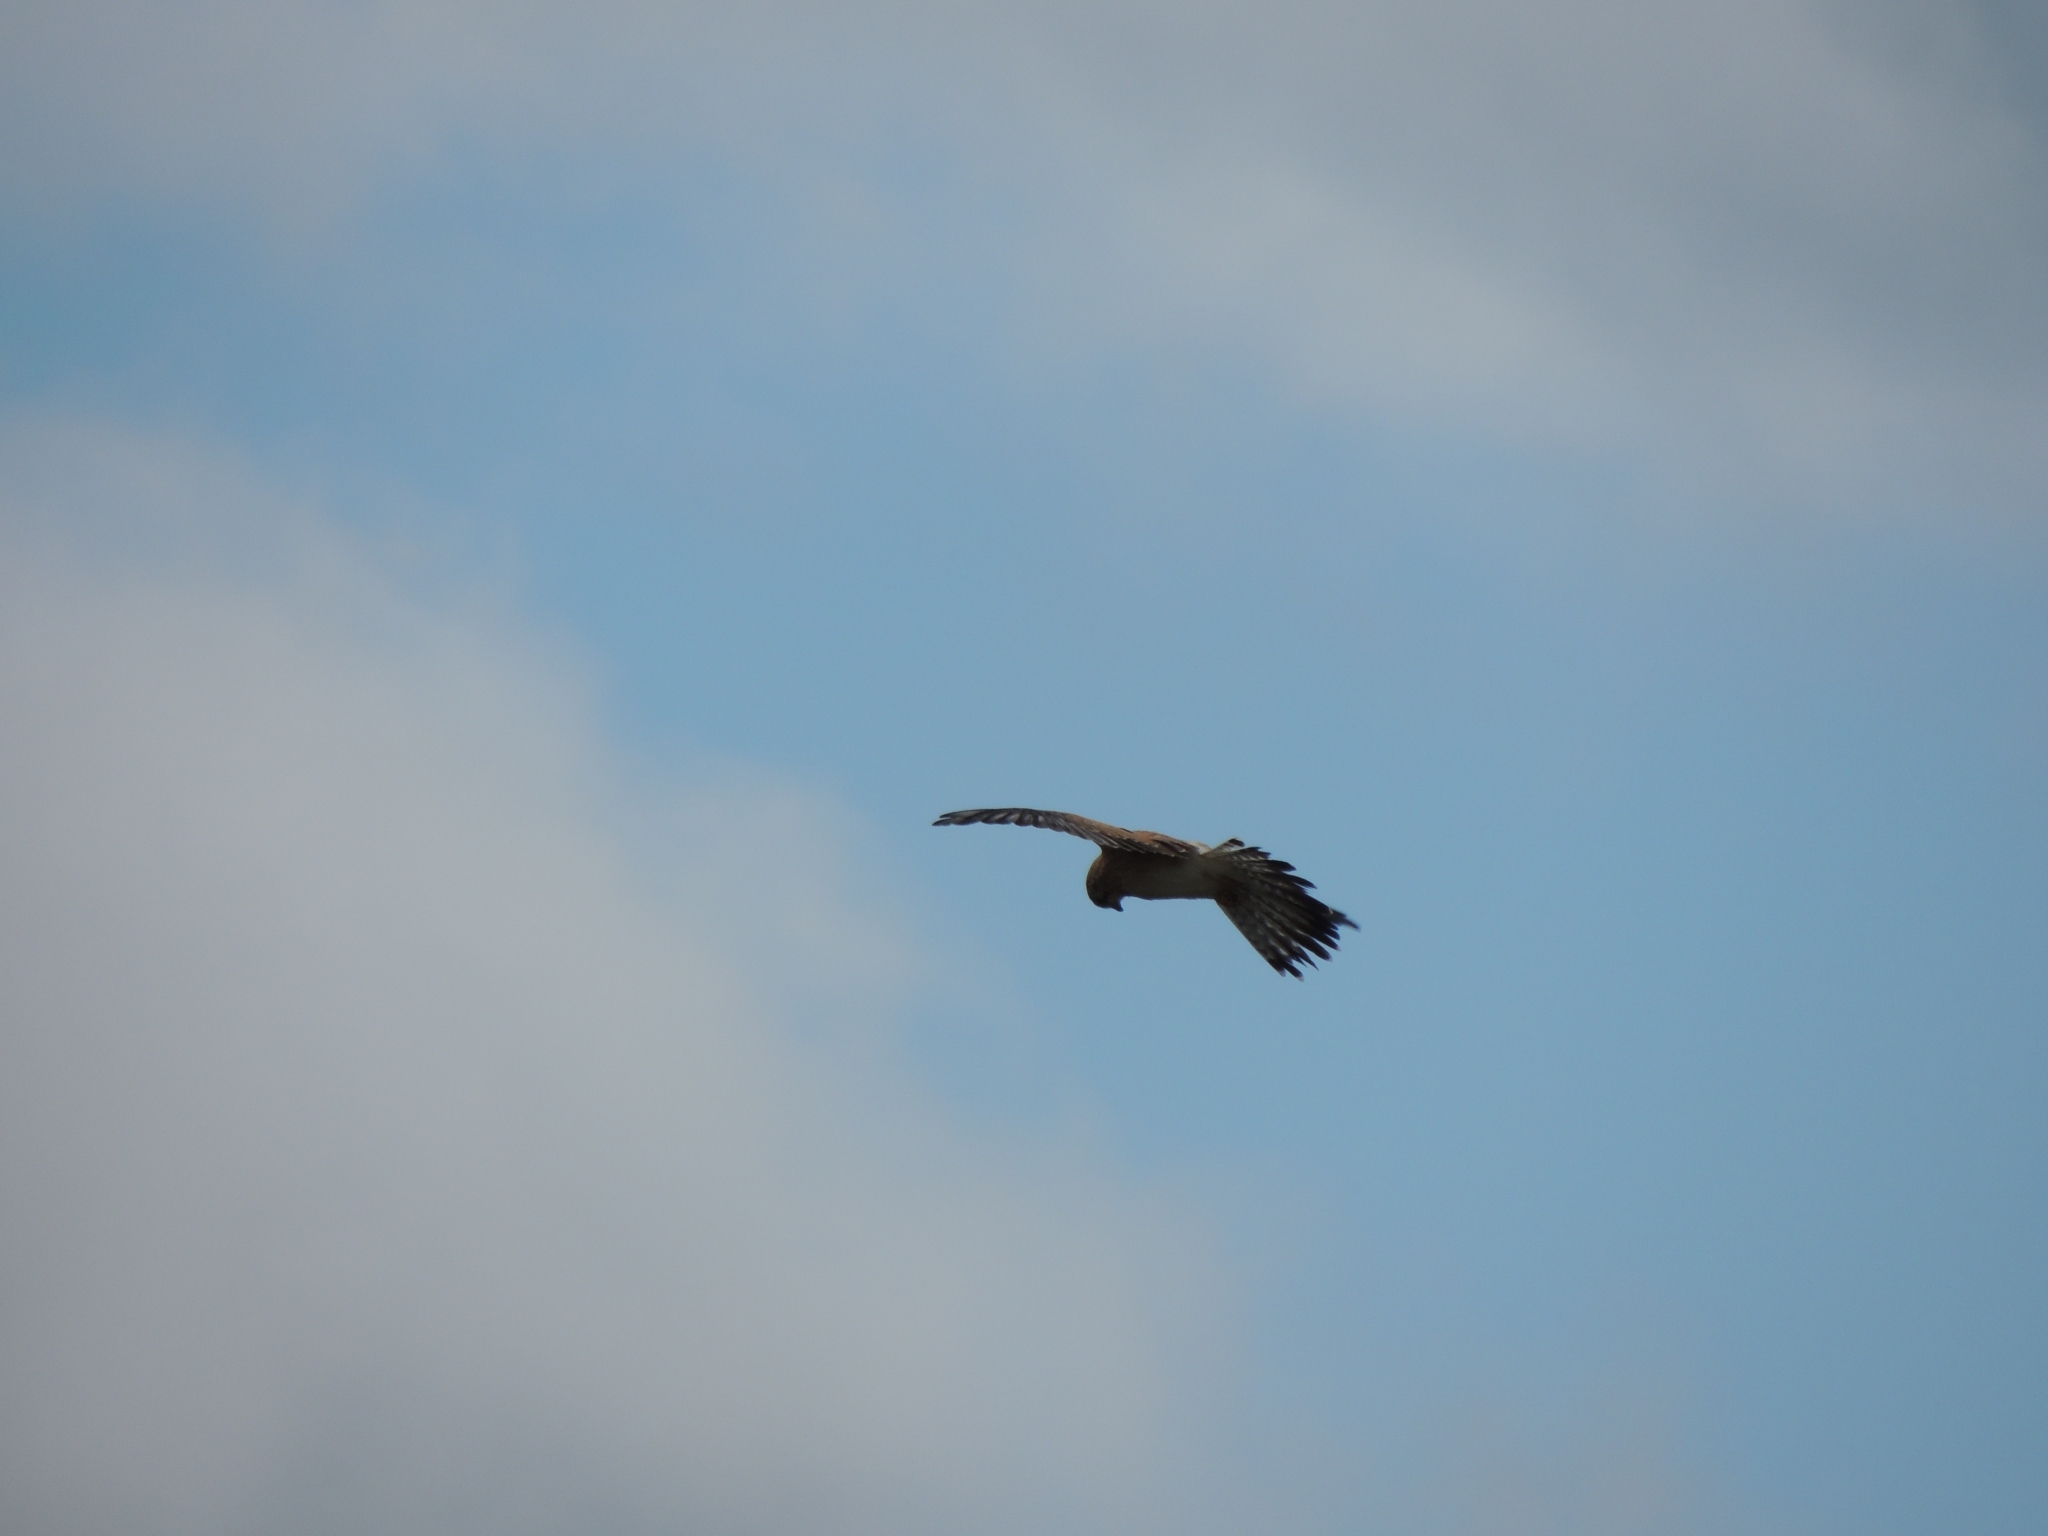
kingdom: Animalia
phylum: Chordata
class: Aves
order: Falconiformes
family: Falconidae
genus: Falco
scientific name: Falco cenchroides
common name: Nankeen kestrel
